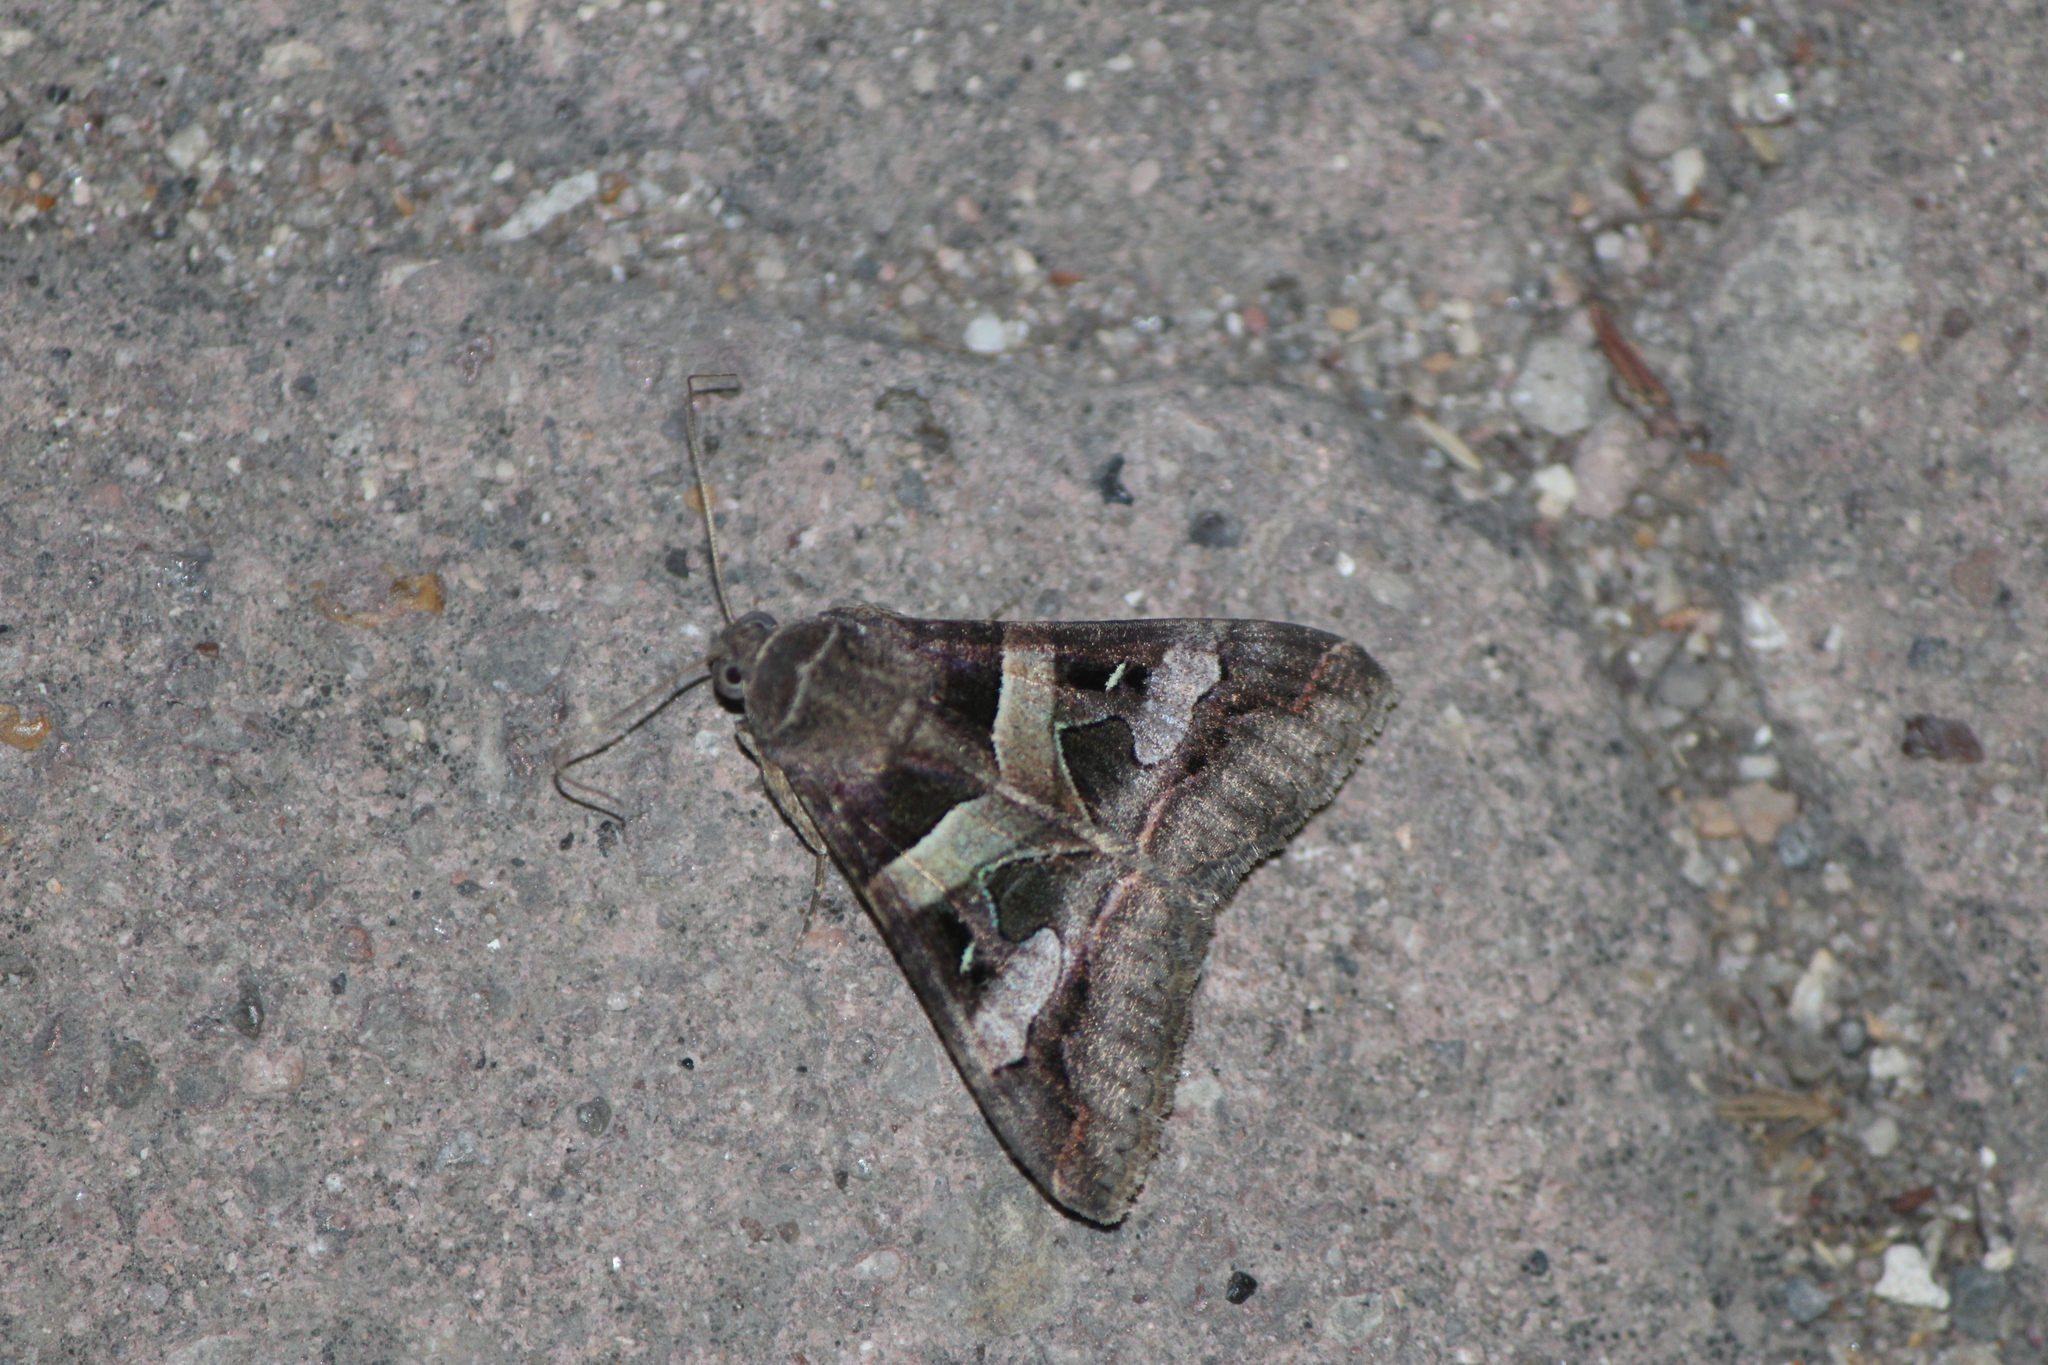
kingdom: Animalia
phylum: Arthropoda
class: Insecta
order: Lepidoptera
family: Erebidae
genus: Melipotis
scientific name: Melipotis perpendicularis
